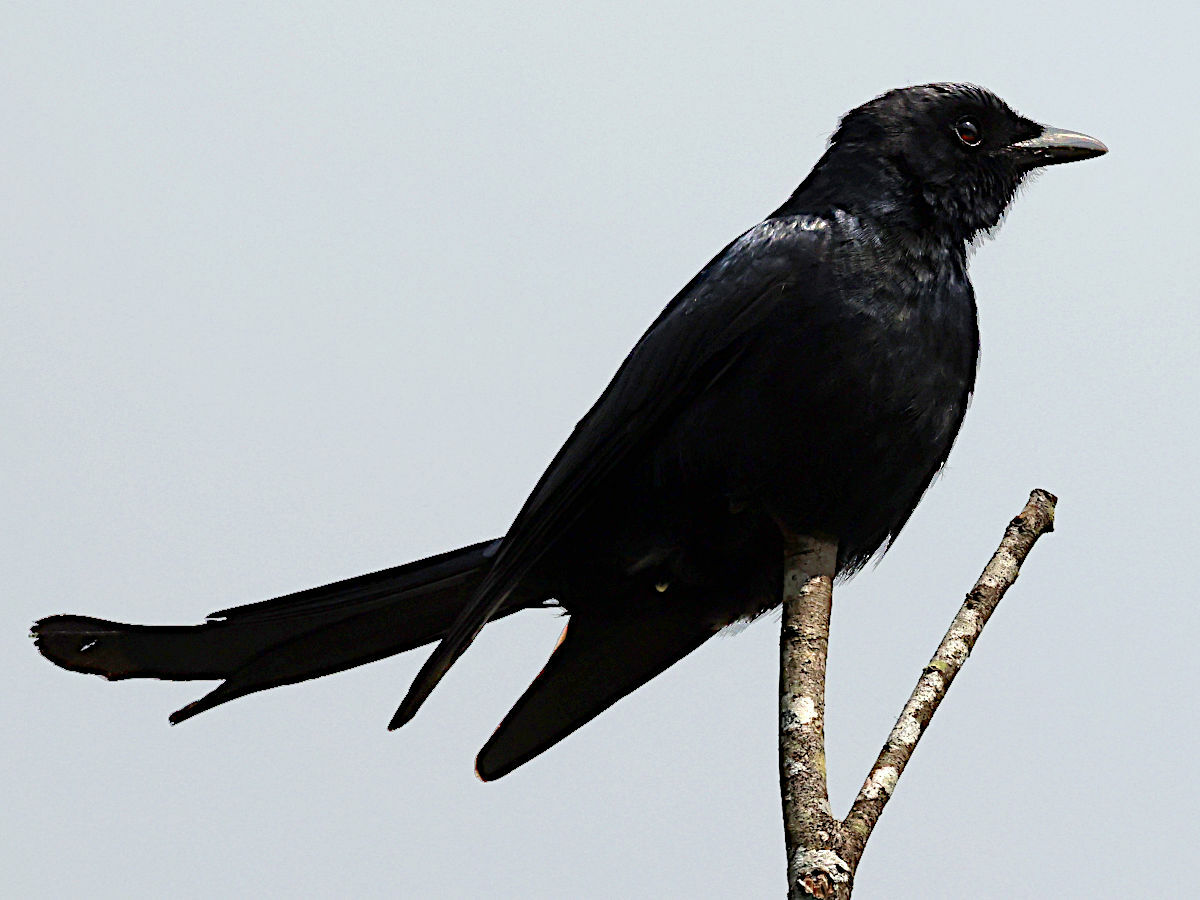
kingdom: Animalia
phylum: Chordata
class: Aves
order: Passeriformes
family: Dicruridae
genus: Dicrurus
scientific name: Dicrurus macrocercus
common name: Black drongo
